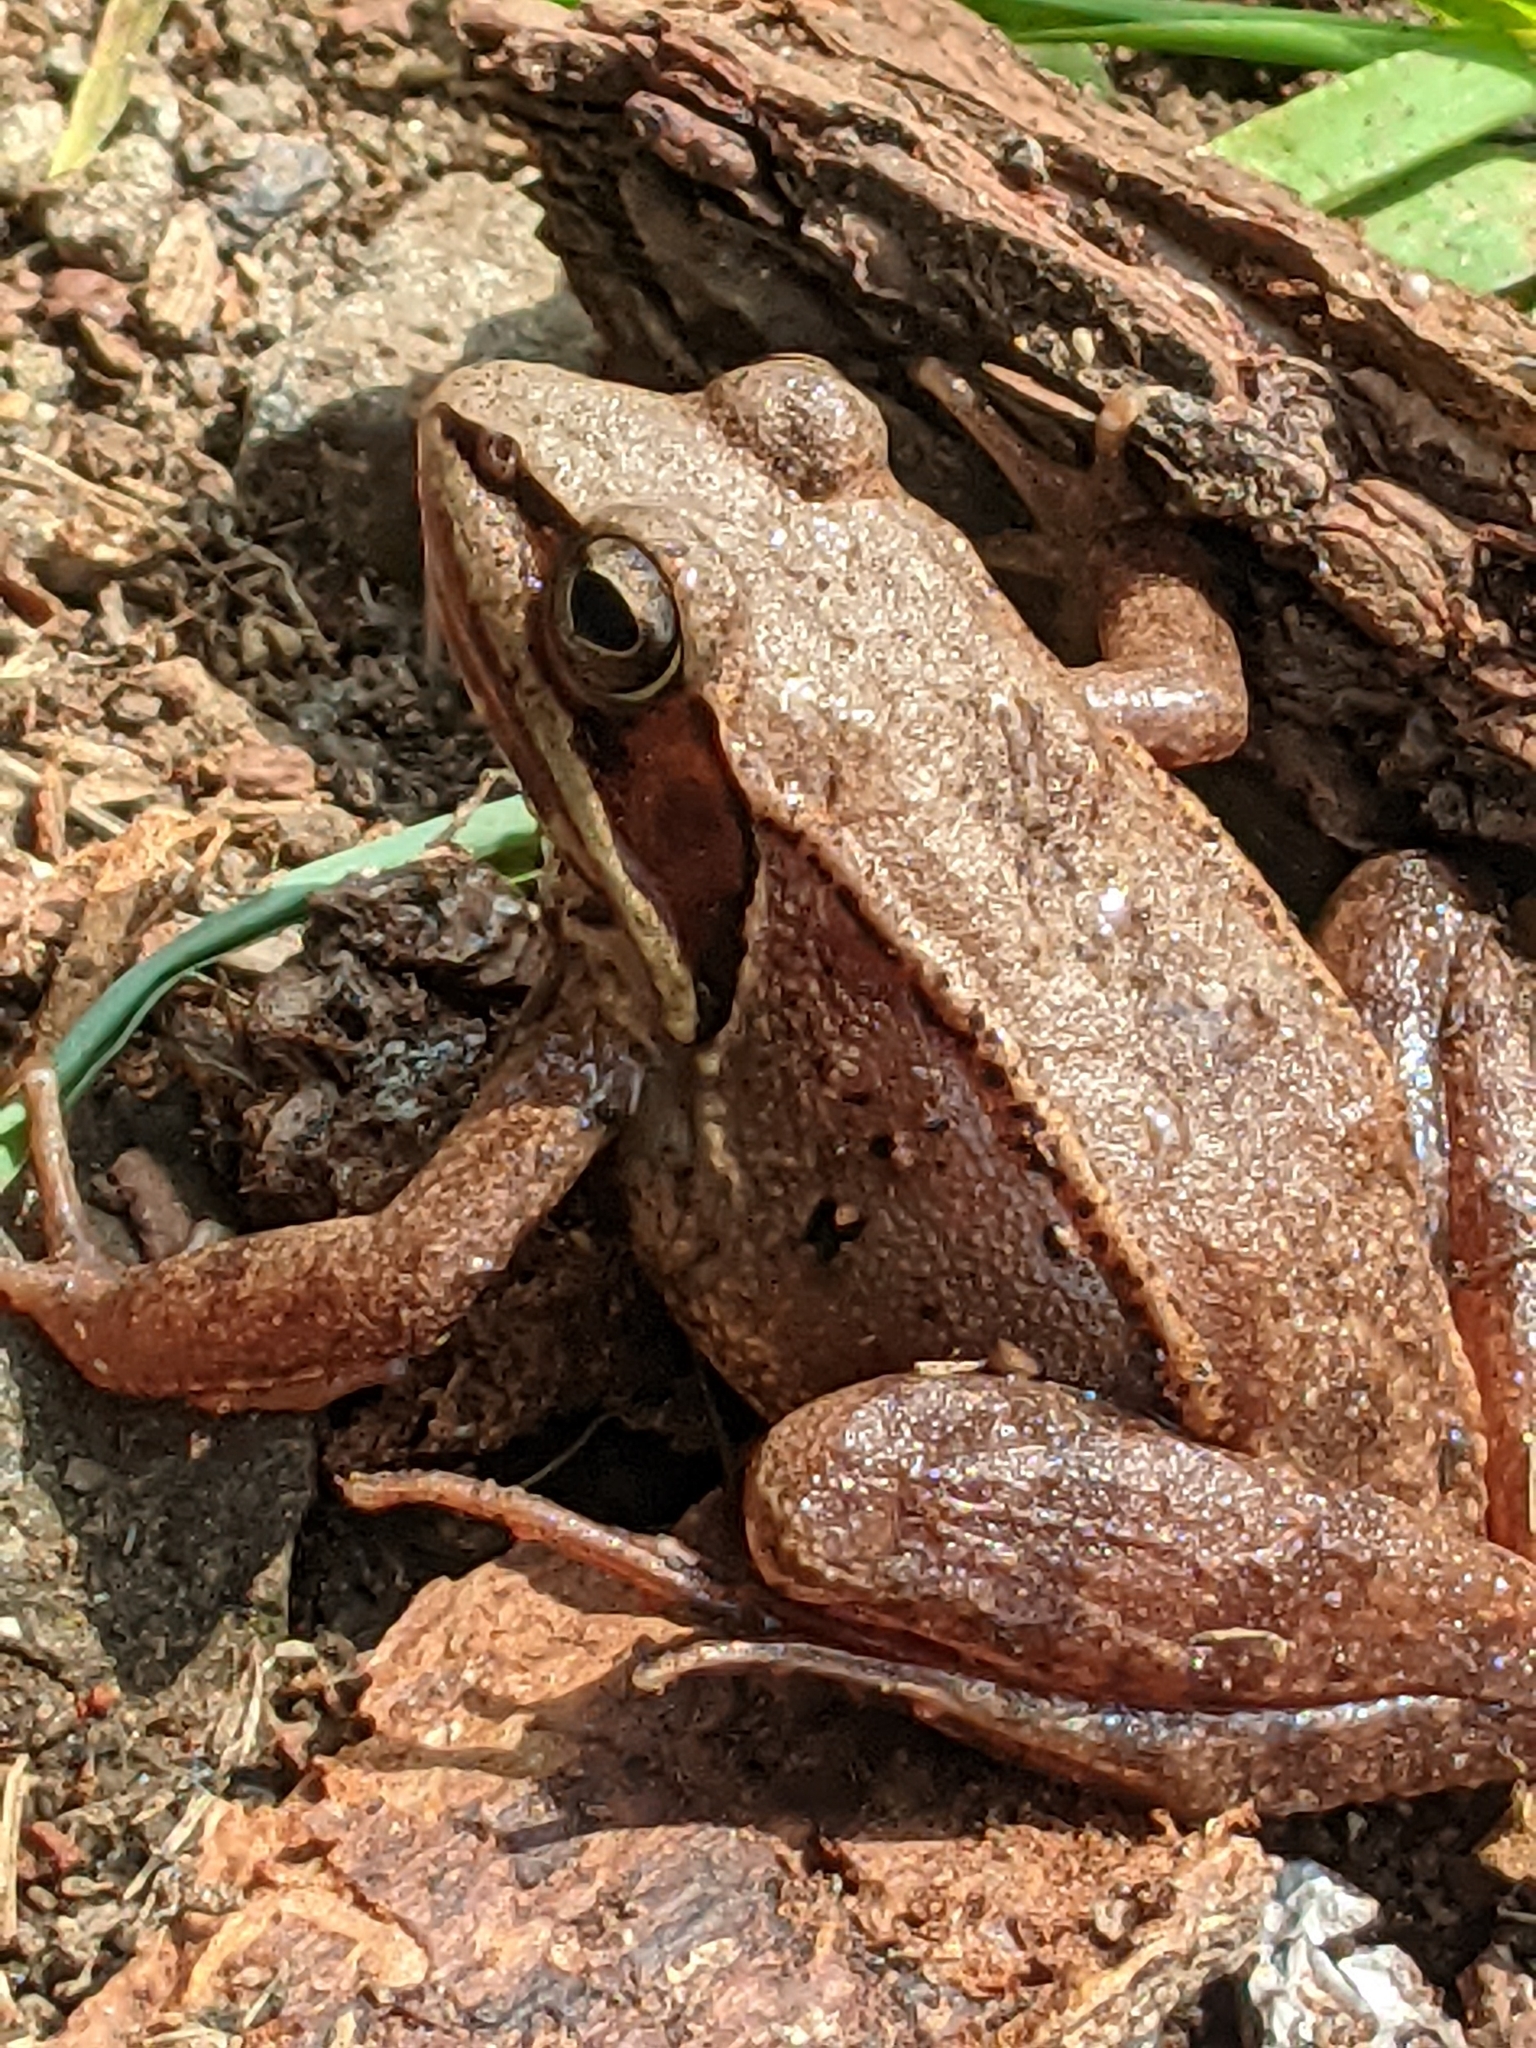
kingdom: Animalia
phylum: Chordata
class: Amphibia
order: Anura
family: Ranidae
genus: Lithobates
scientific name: Lithobates sylvaticus
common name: Wood frog
